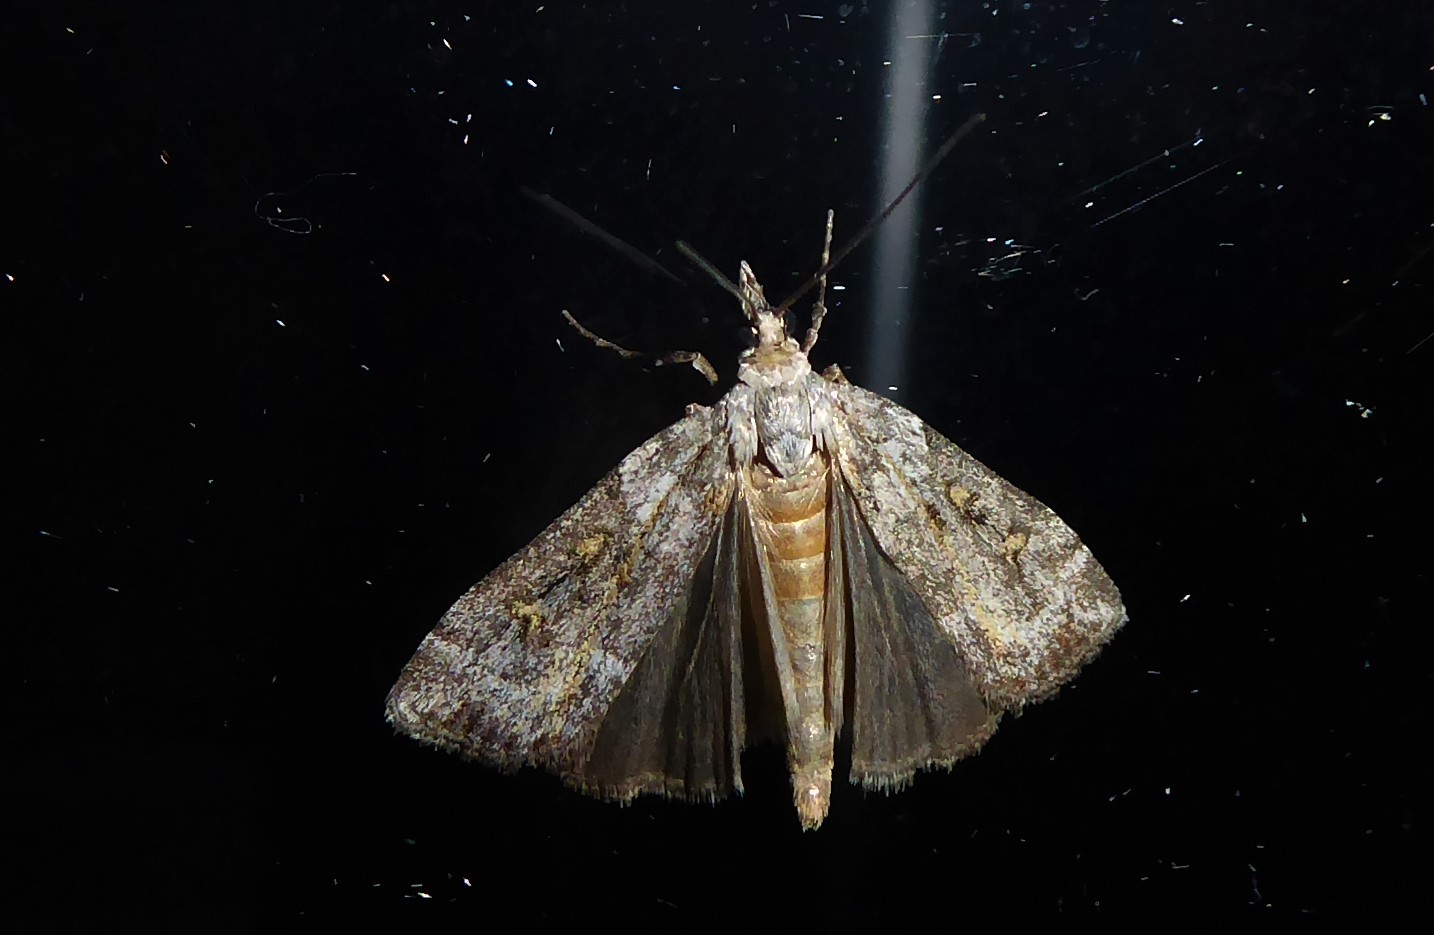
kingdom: Animalia
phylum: Arthropoda
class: Insecta
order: Lepidoptera
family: Crambidae
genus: Eudonia
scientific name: Eudonia diphtheralis
